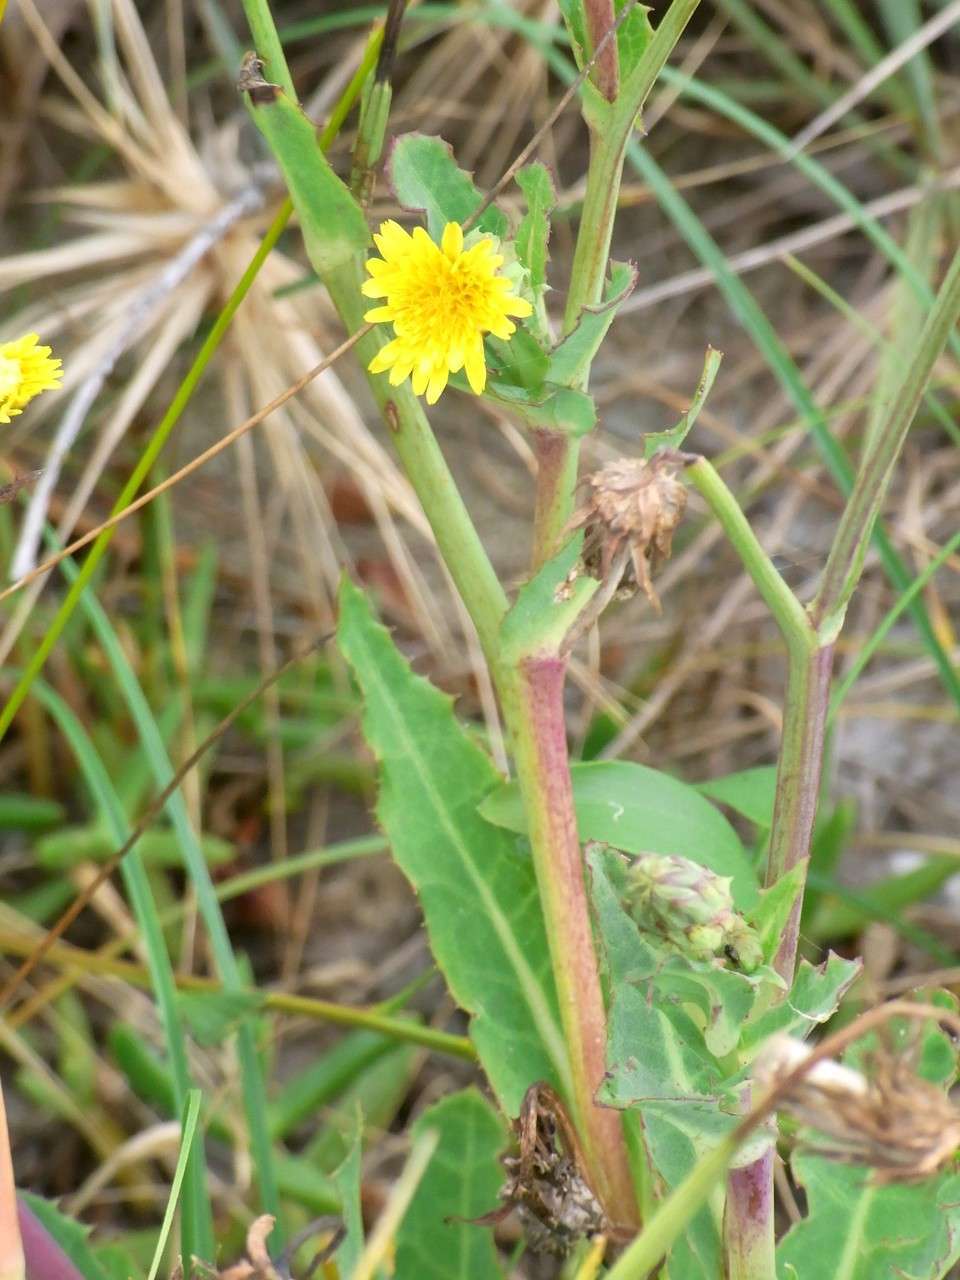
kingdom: Plantae
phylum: Tracheophyta
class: Magnoliopsida
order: Asterales
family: Asteraceae
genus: Sonchus
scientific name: Sonchus megalocarpus
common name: Dune thistle
